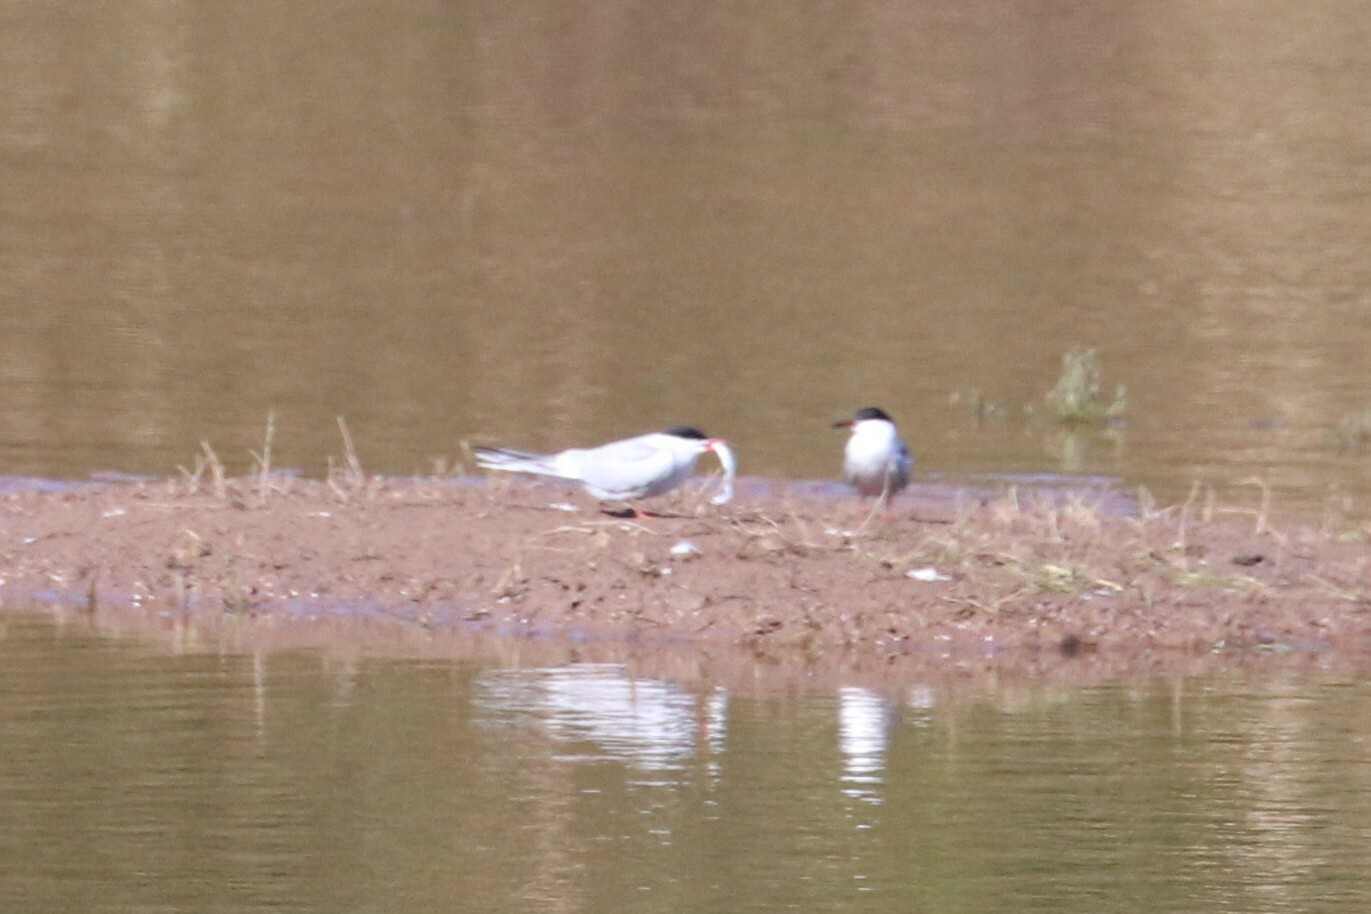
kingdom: Animalia
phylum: Chordata
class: Aves
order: Charadriiformes
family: Laridae
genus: Sterna
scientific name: Sterna hirundo
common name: Common tern
